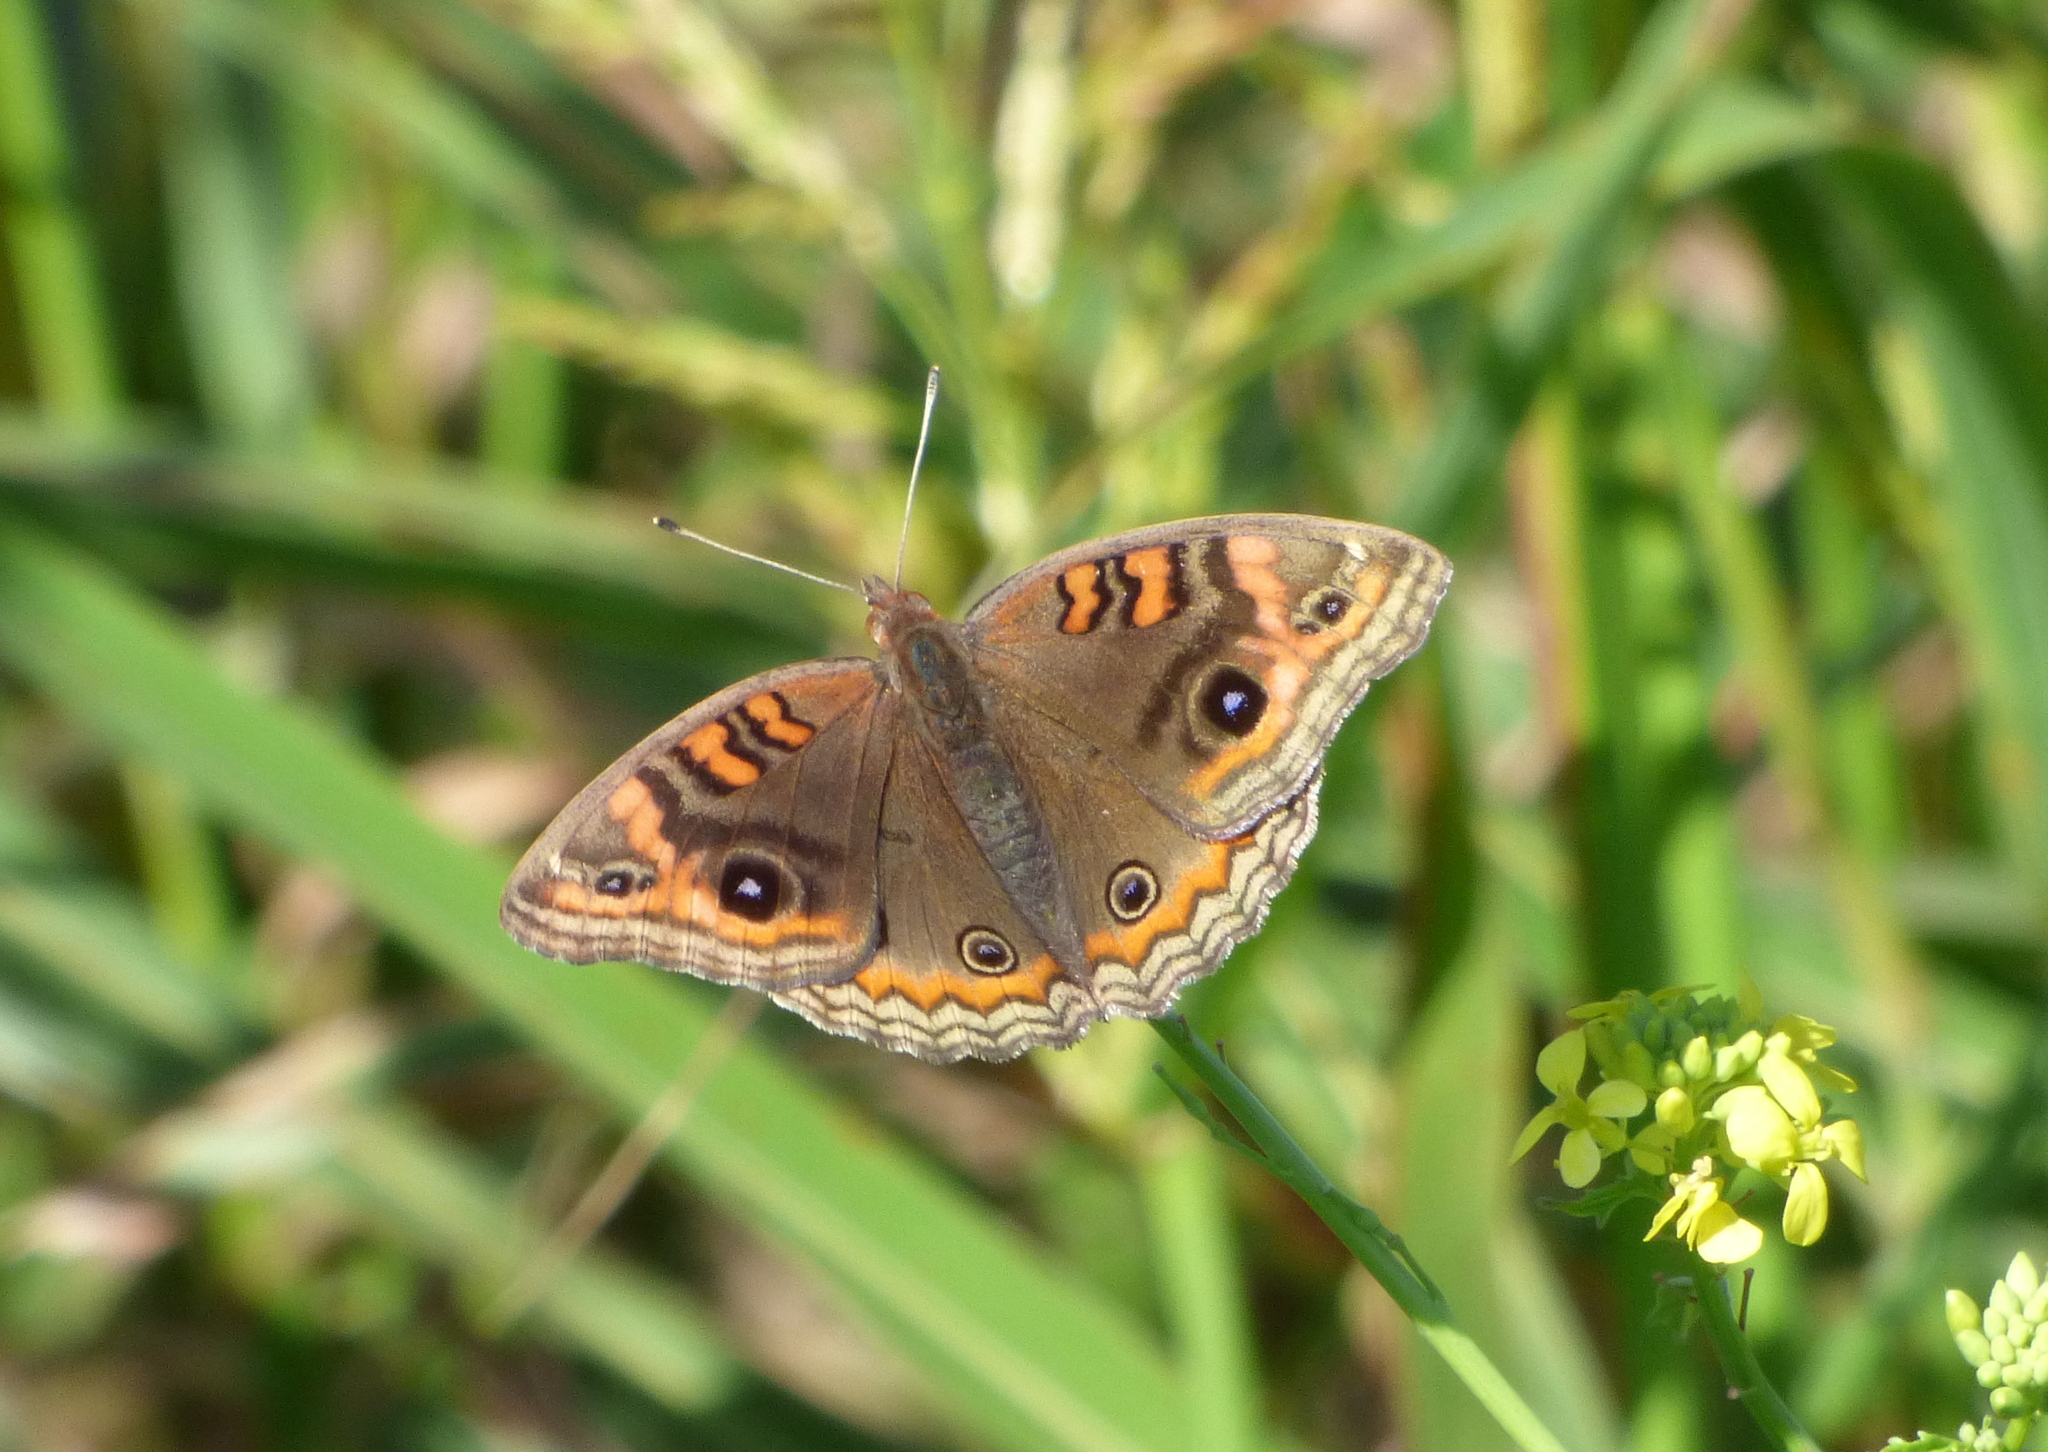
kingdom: Animalia
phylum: Arthropoda
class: Insecta
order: Lepidoptera
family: Nymphalidae
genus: Junonia
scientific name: Junonia lavinia
